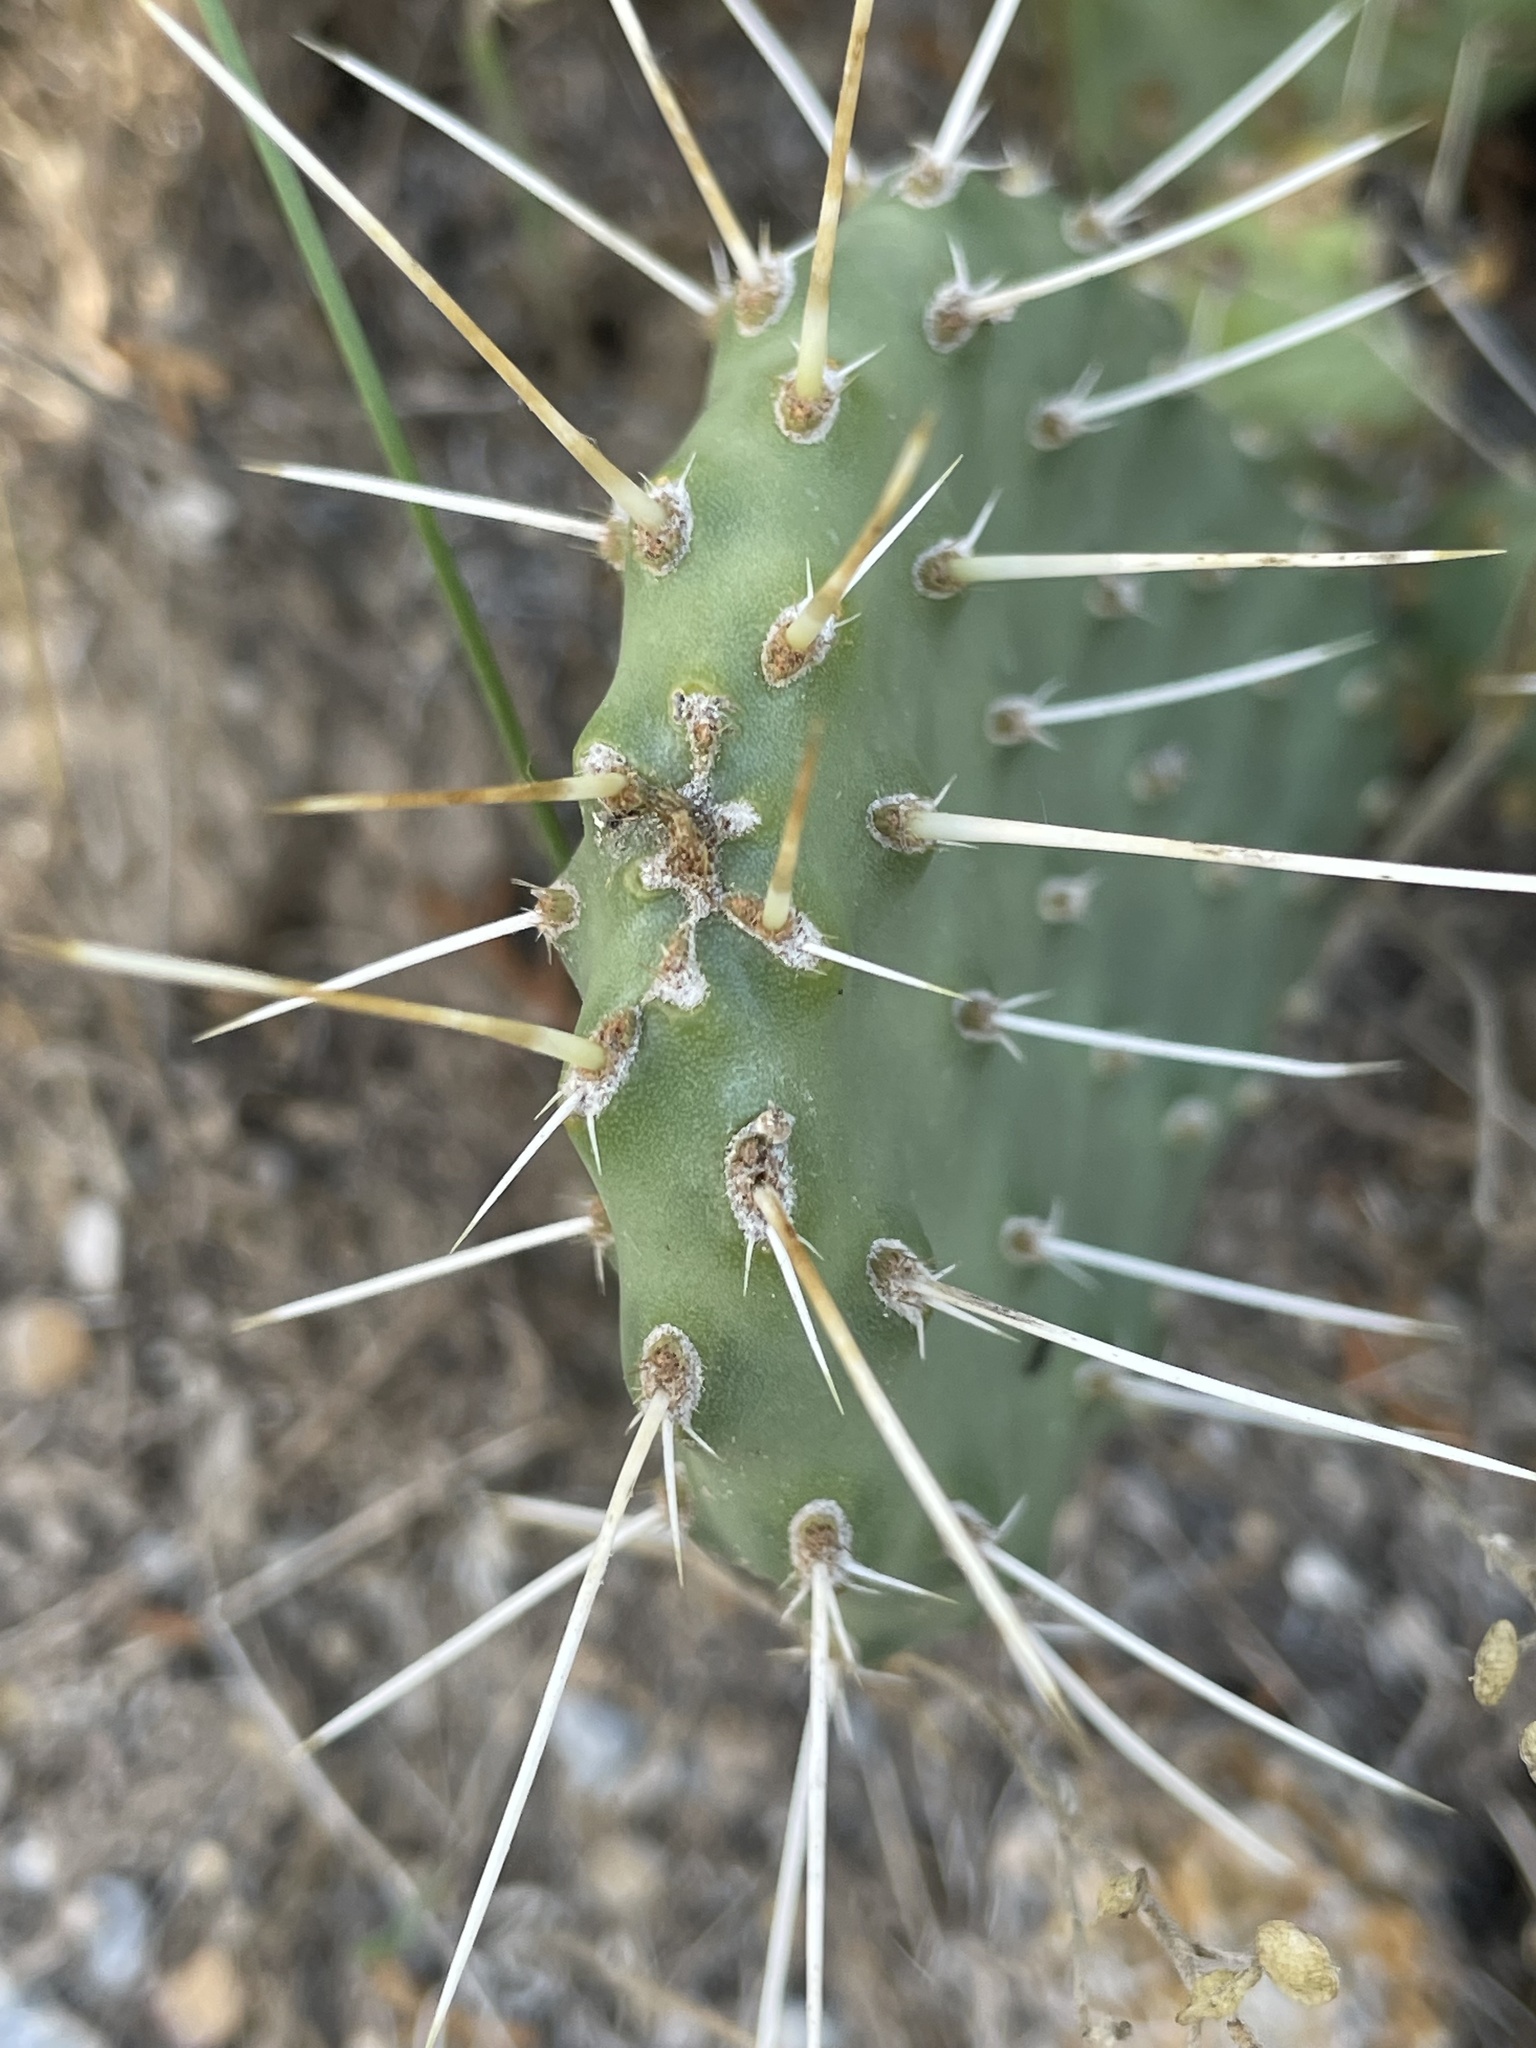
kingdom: Plantae
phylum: Tracheophyta
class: Magnoliopsida
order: Caryophyllales
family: Cactaceae
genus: Opuntia
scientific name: Opuntia polyacantha
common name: Plains prickly-pear
